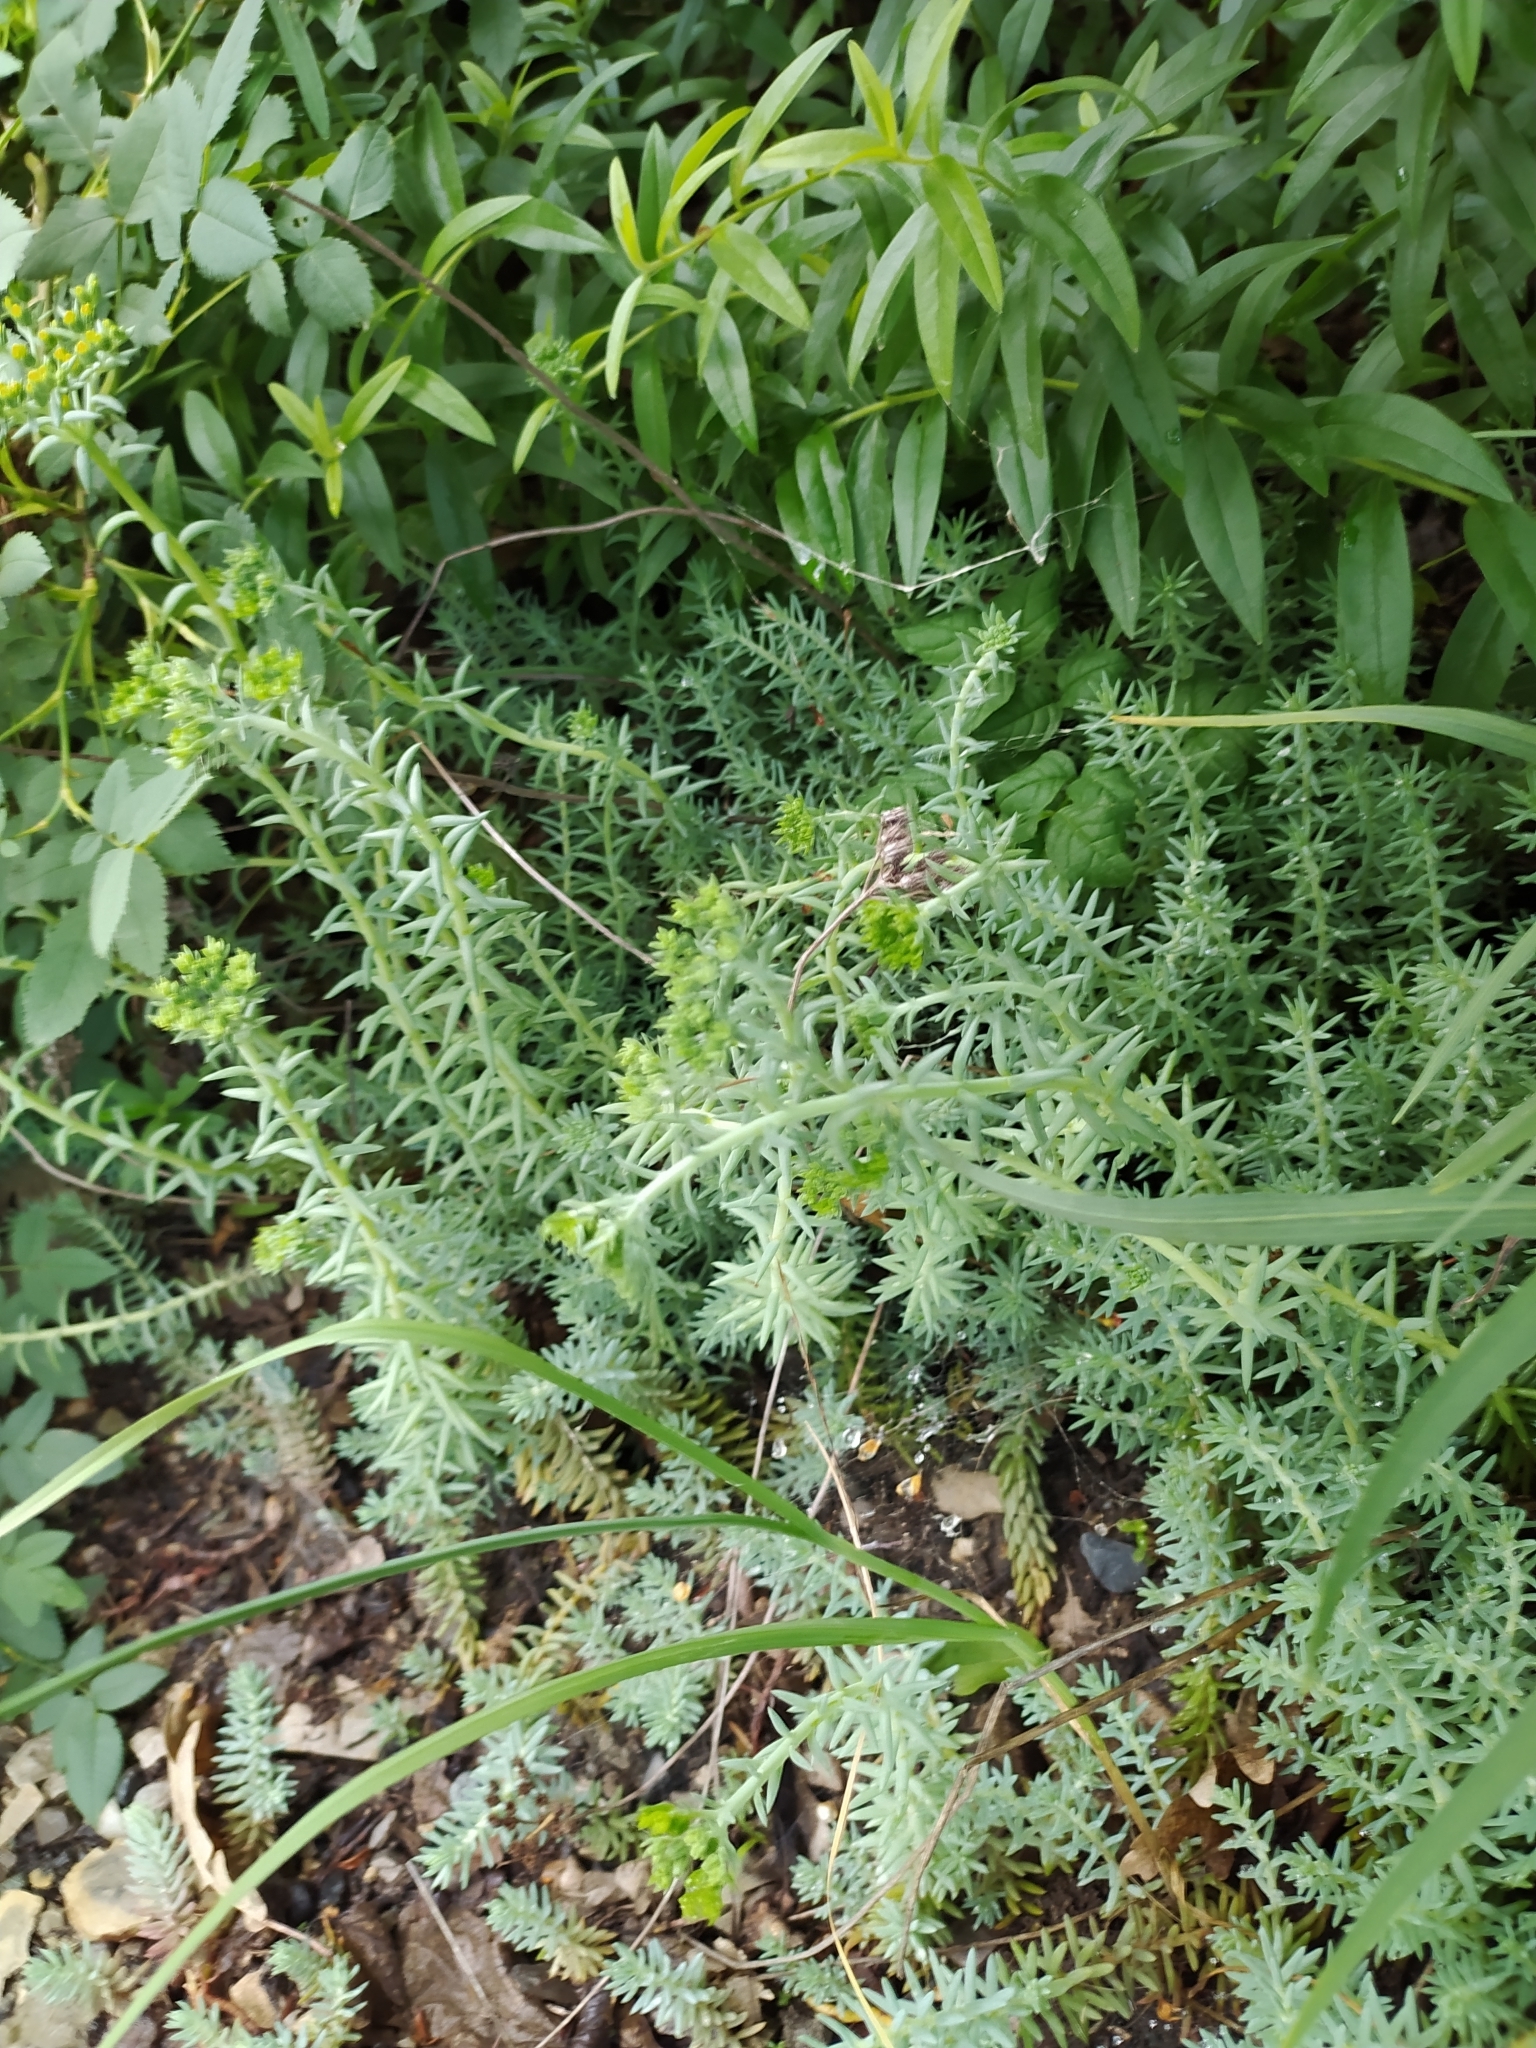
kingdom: Plantae
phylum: Tracheophyta
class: Magnoliopsida
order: Saxifragales
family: Crassulaceae
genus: Petrosedum
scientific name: Petrosedum orientale
